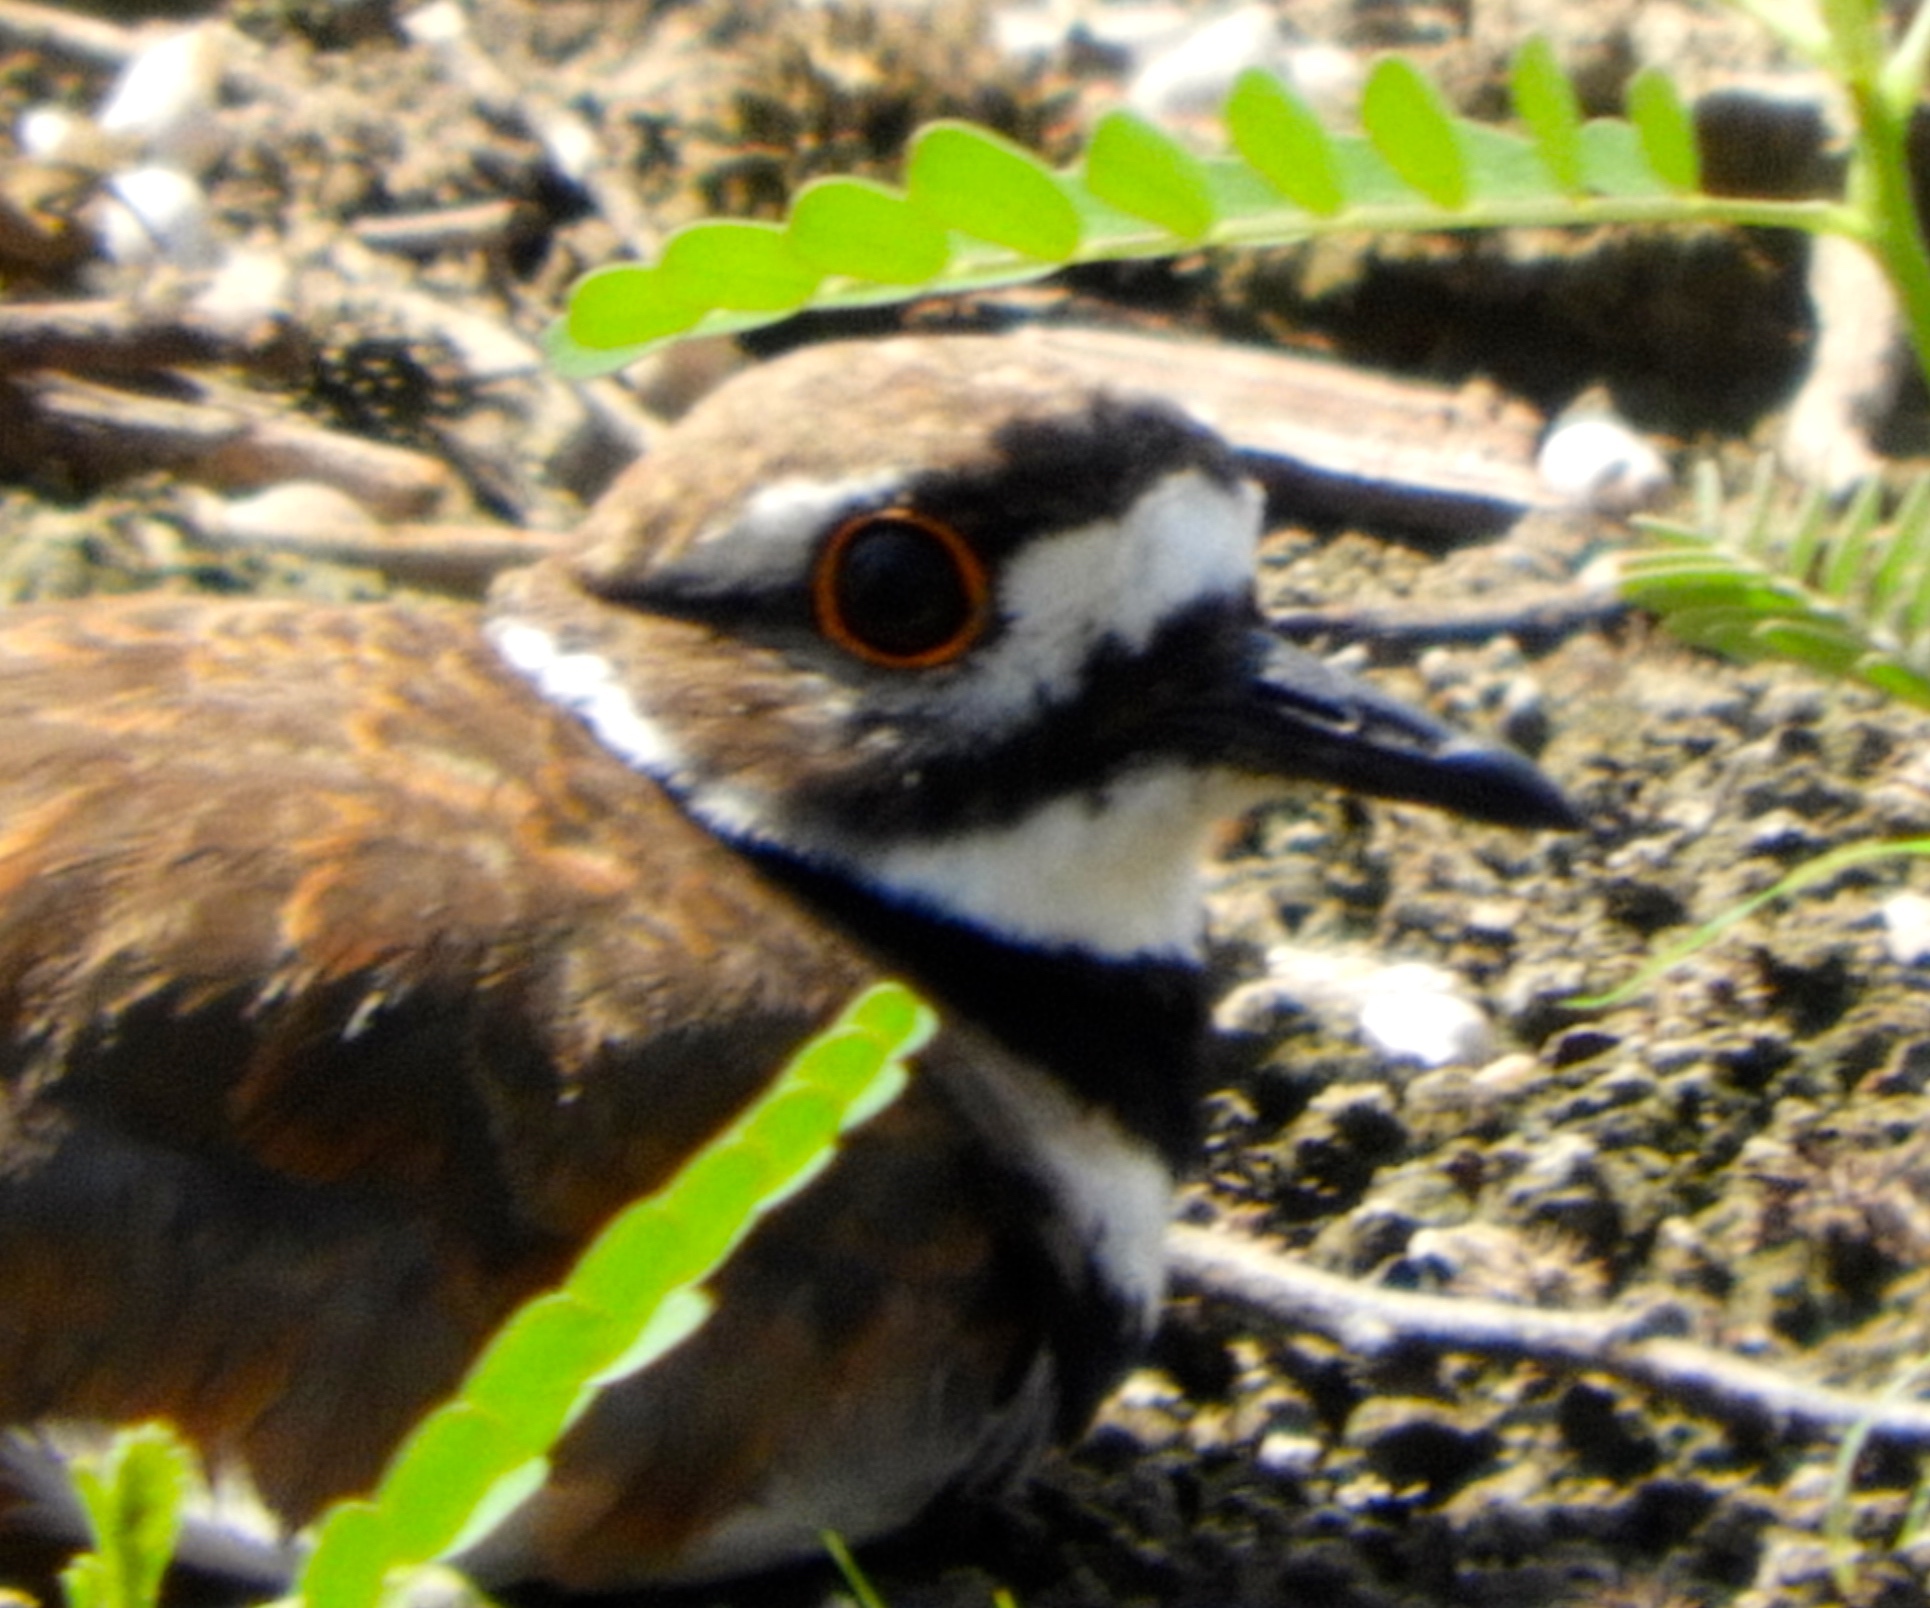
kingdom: Animalia
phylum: Chordata
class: Aves
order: Charadriiformes
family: Charadriidae
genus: Charadrius
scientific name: Charadrius vociferus
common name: Killdeer
